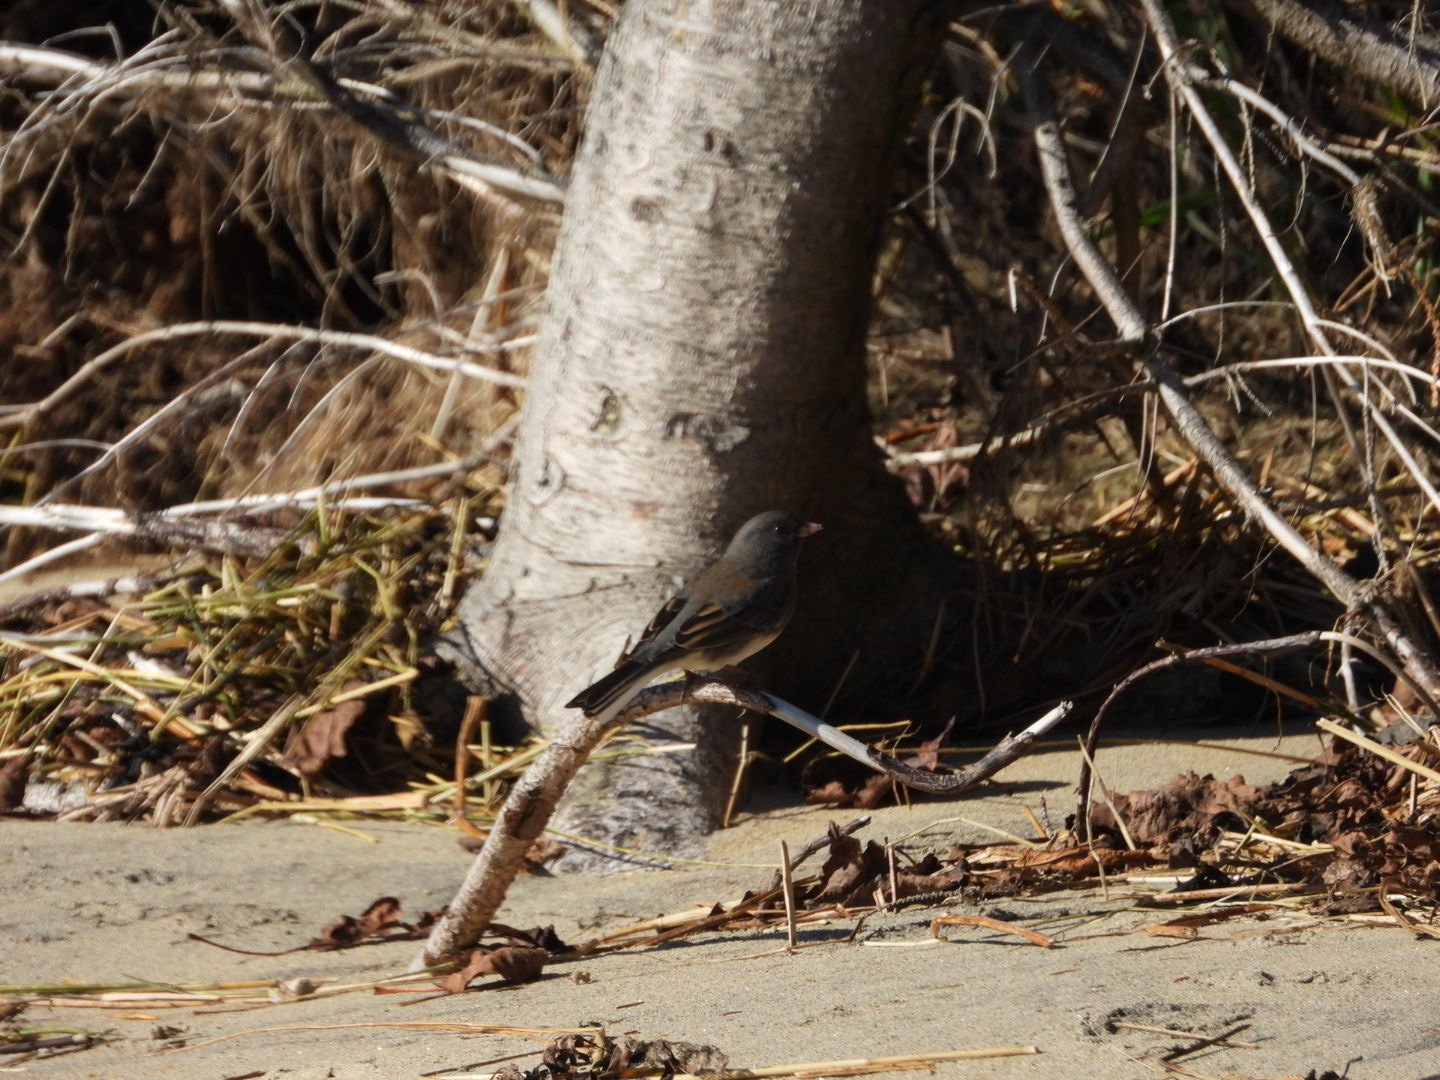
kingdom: Animalia
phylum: Chordata
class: Aves
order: Passeriformes
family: Passerellidae
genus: Junco
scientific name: Junco hyemalis
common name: Dark-eyed junco
